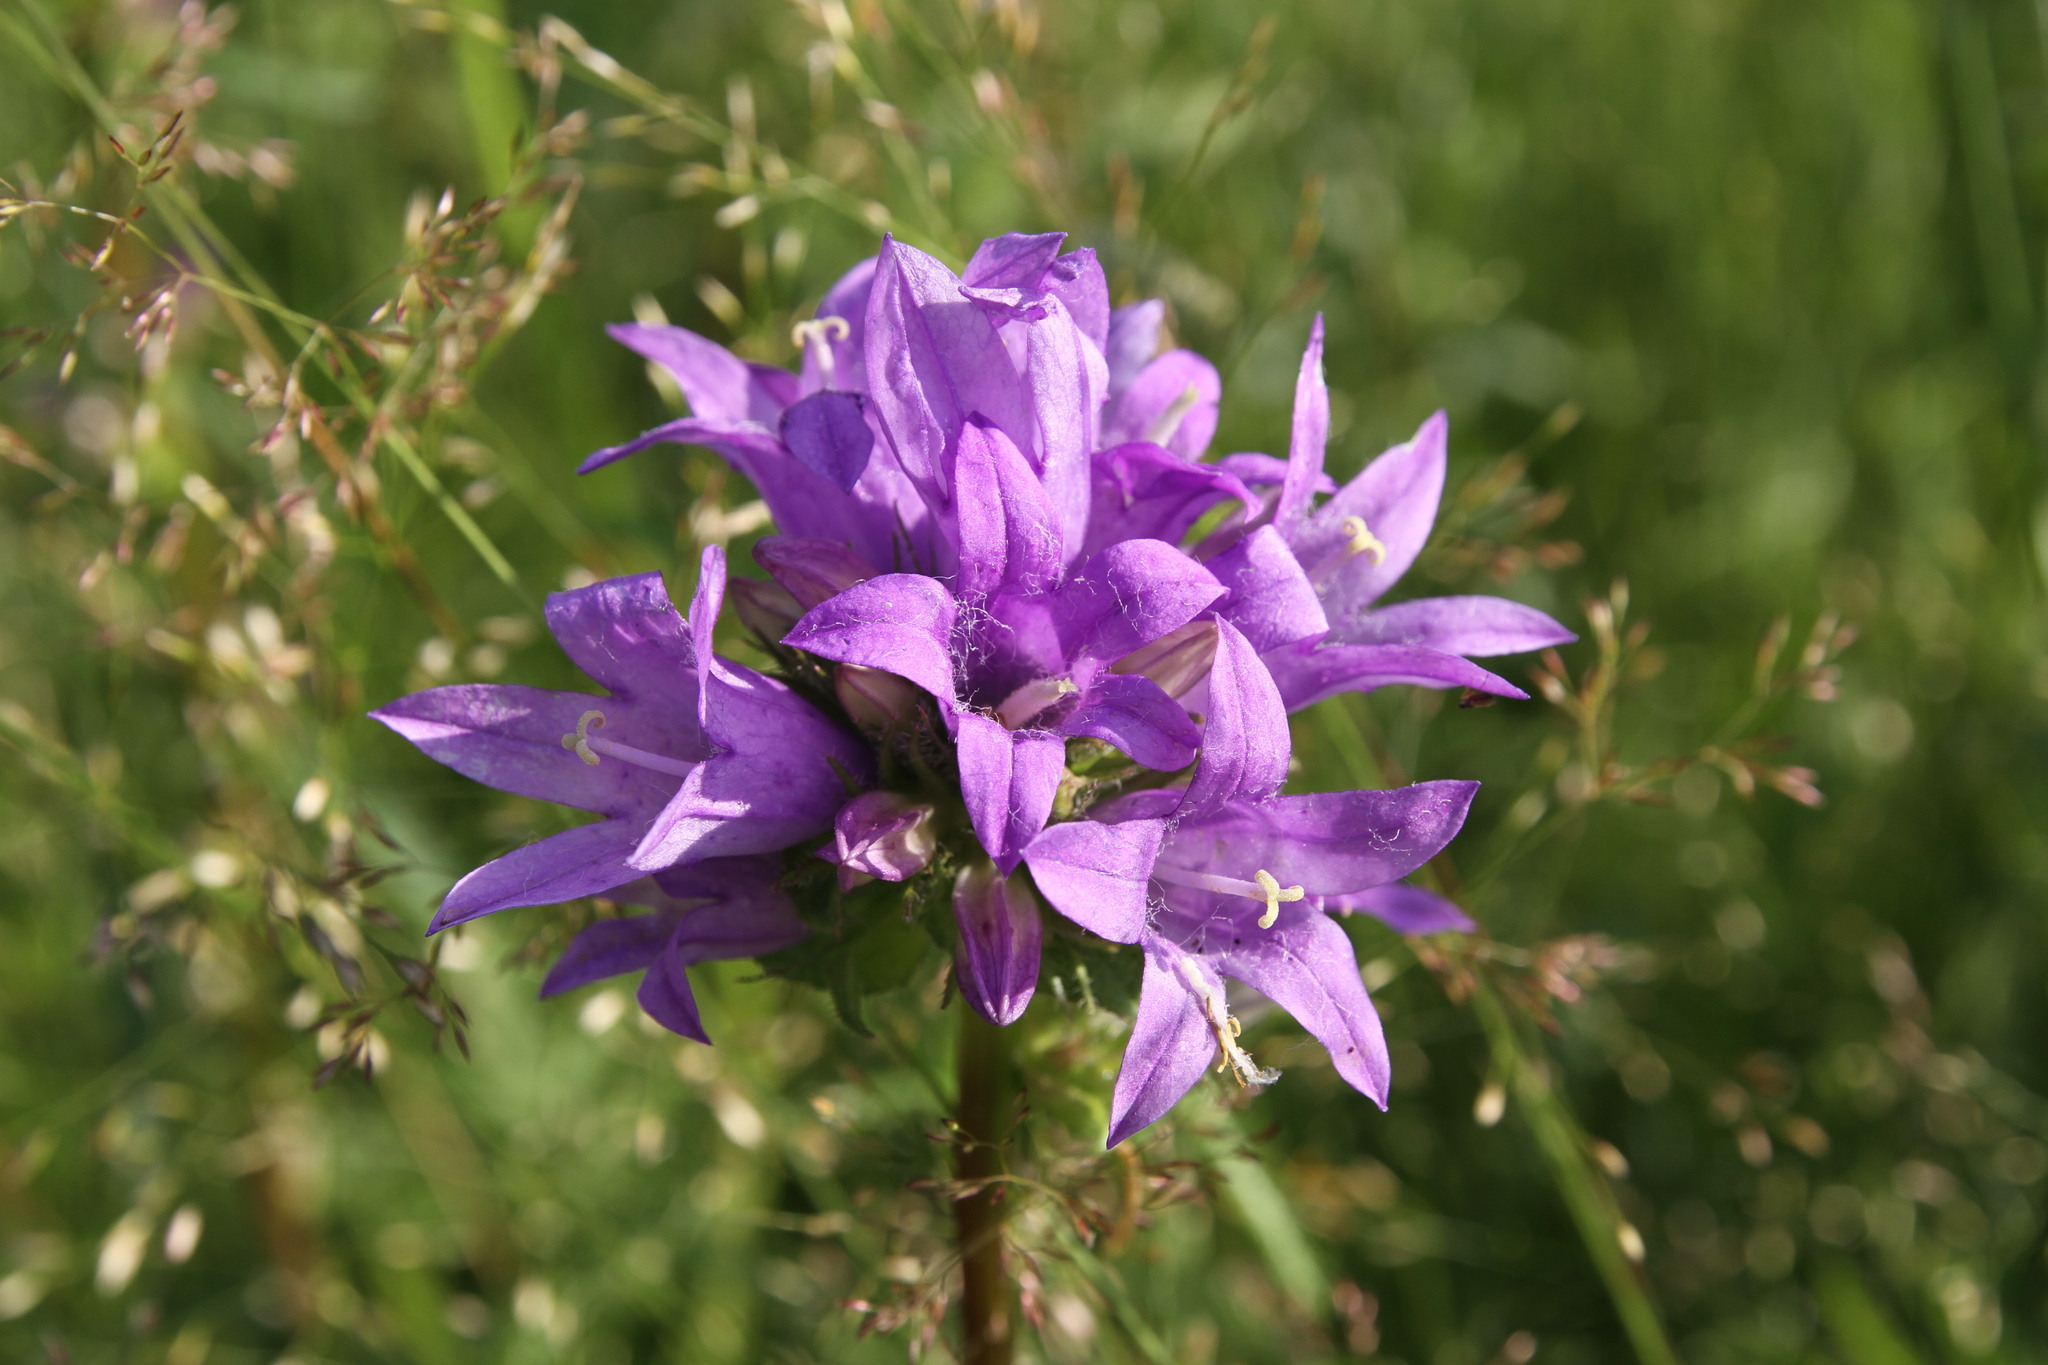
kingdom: Plantae
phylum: Tracheophyta
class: Magnoliopsida
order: Asterales
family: Campanulaceae
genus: Campanula
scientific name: Campanula glomerata
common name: Clustered bellflower
